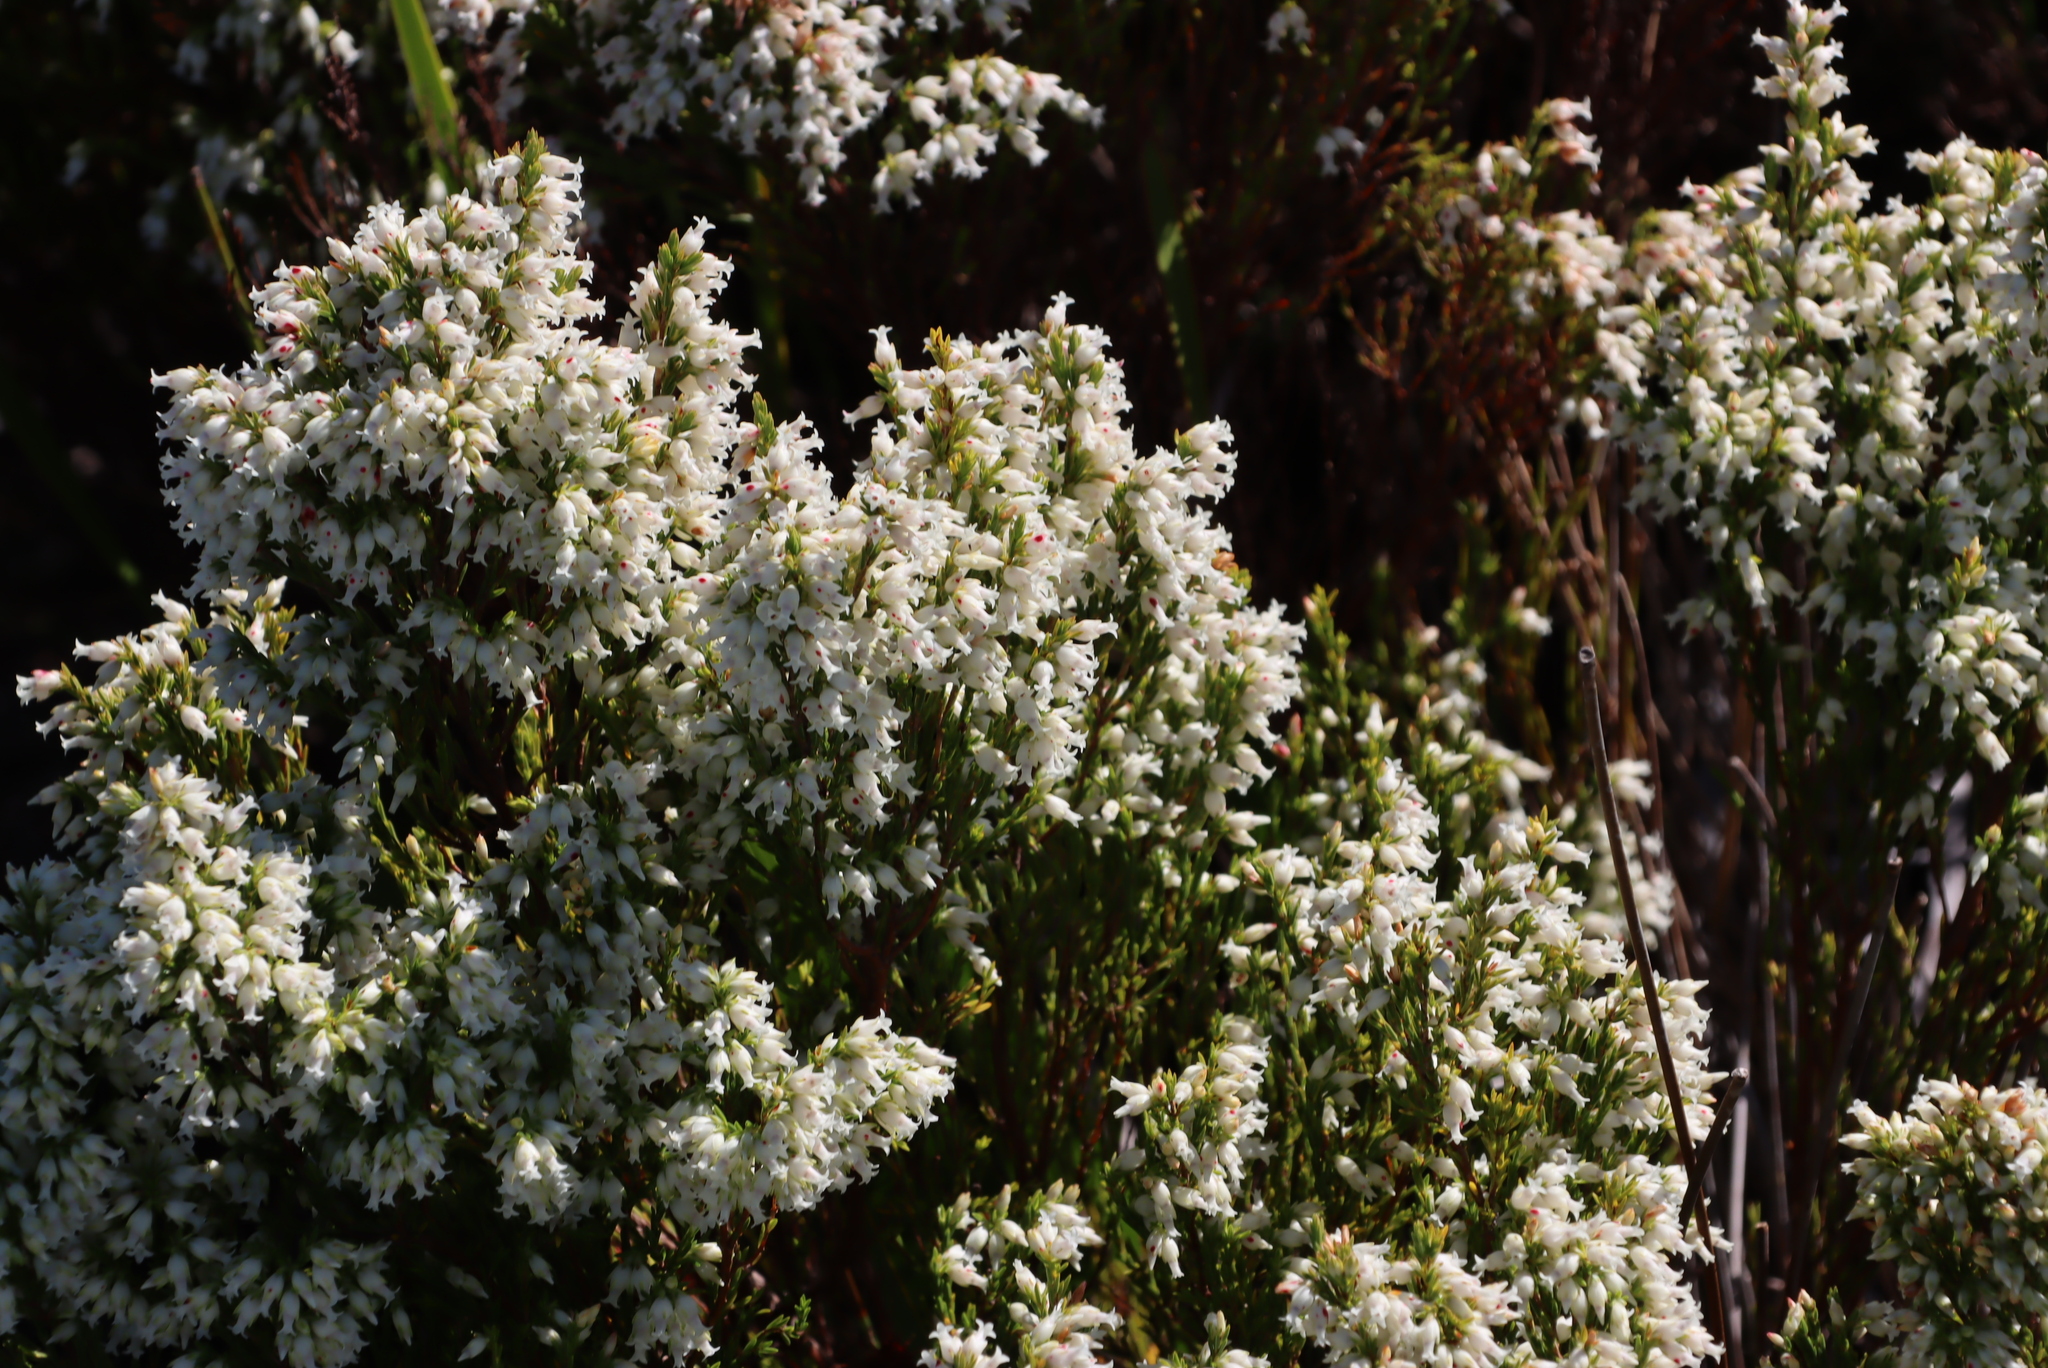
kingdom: Plantae
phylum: Tracheophyta
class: Magnoliopsida
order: Ericales
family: Ericaceae
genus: Erica
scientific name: Erica lutea
